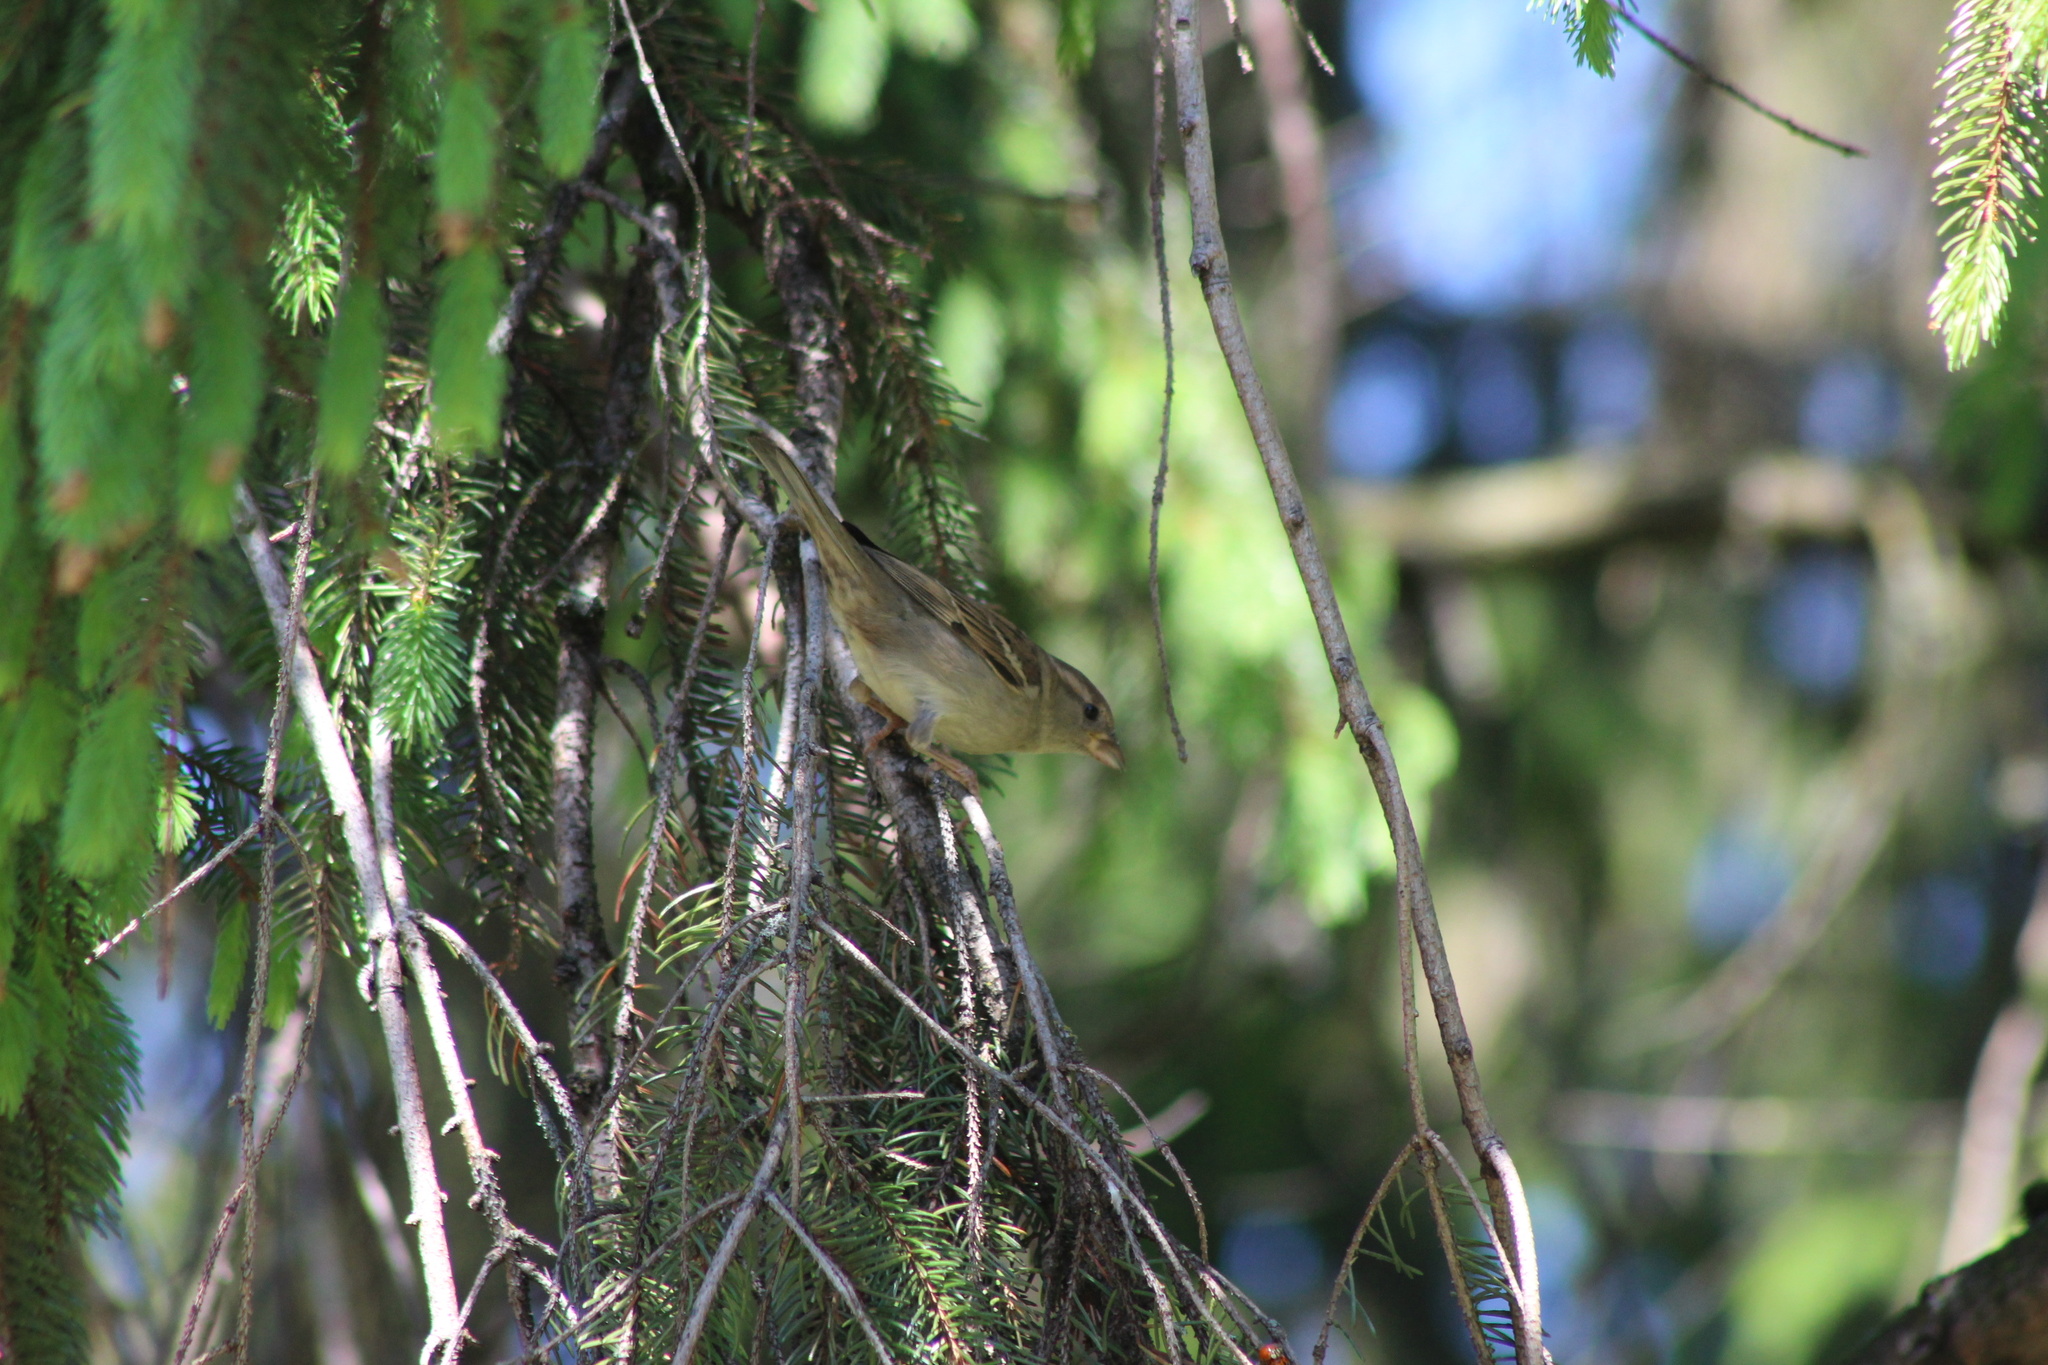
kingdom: Animalia
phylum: Chordata
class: Aves
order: Passeriformes
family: Passeridae
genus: Passer
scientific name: Passer domesticus
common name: House sparrow
